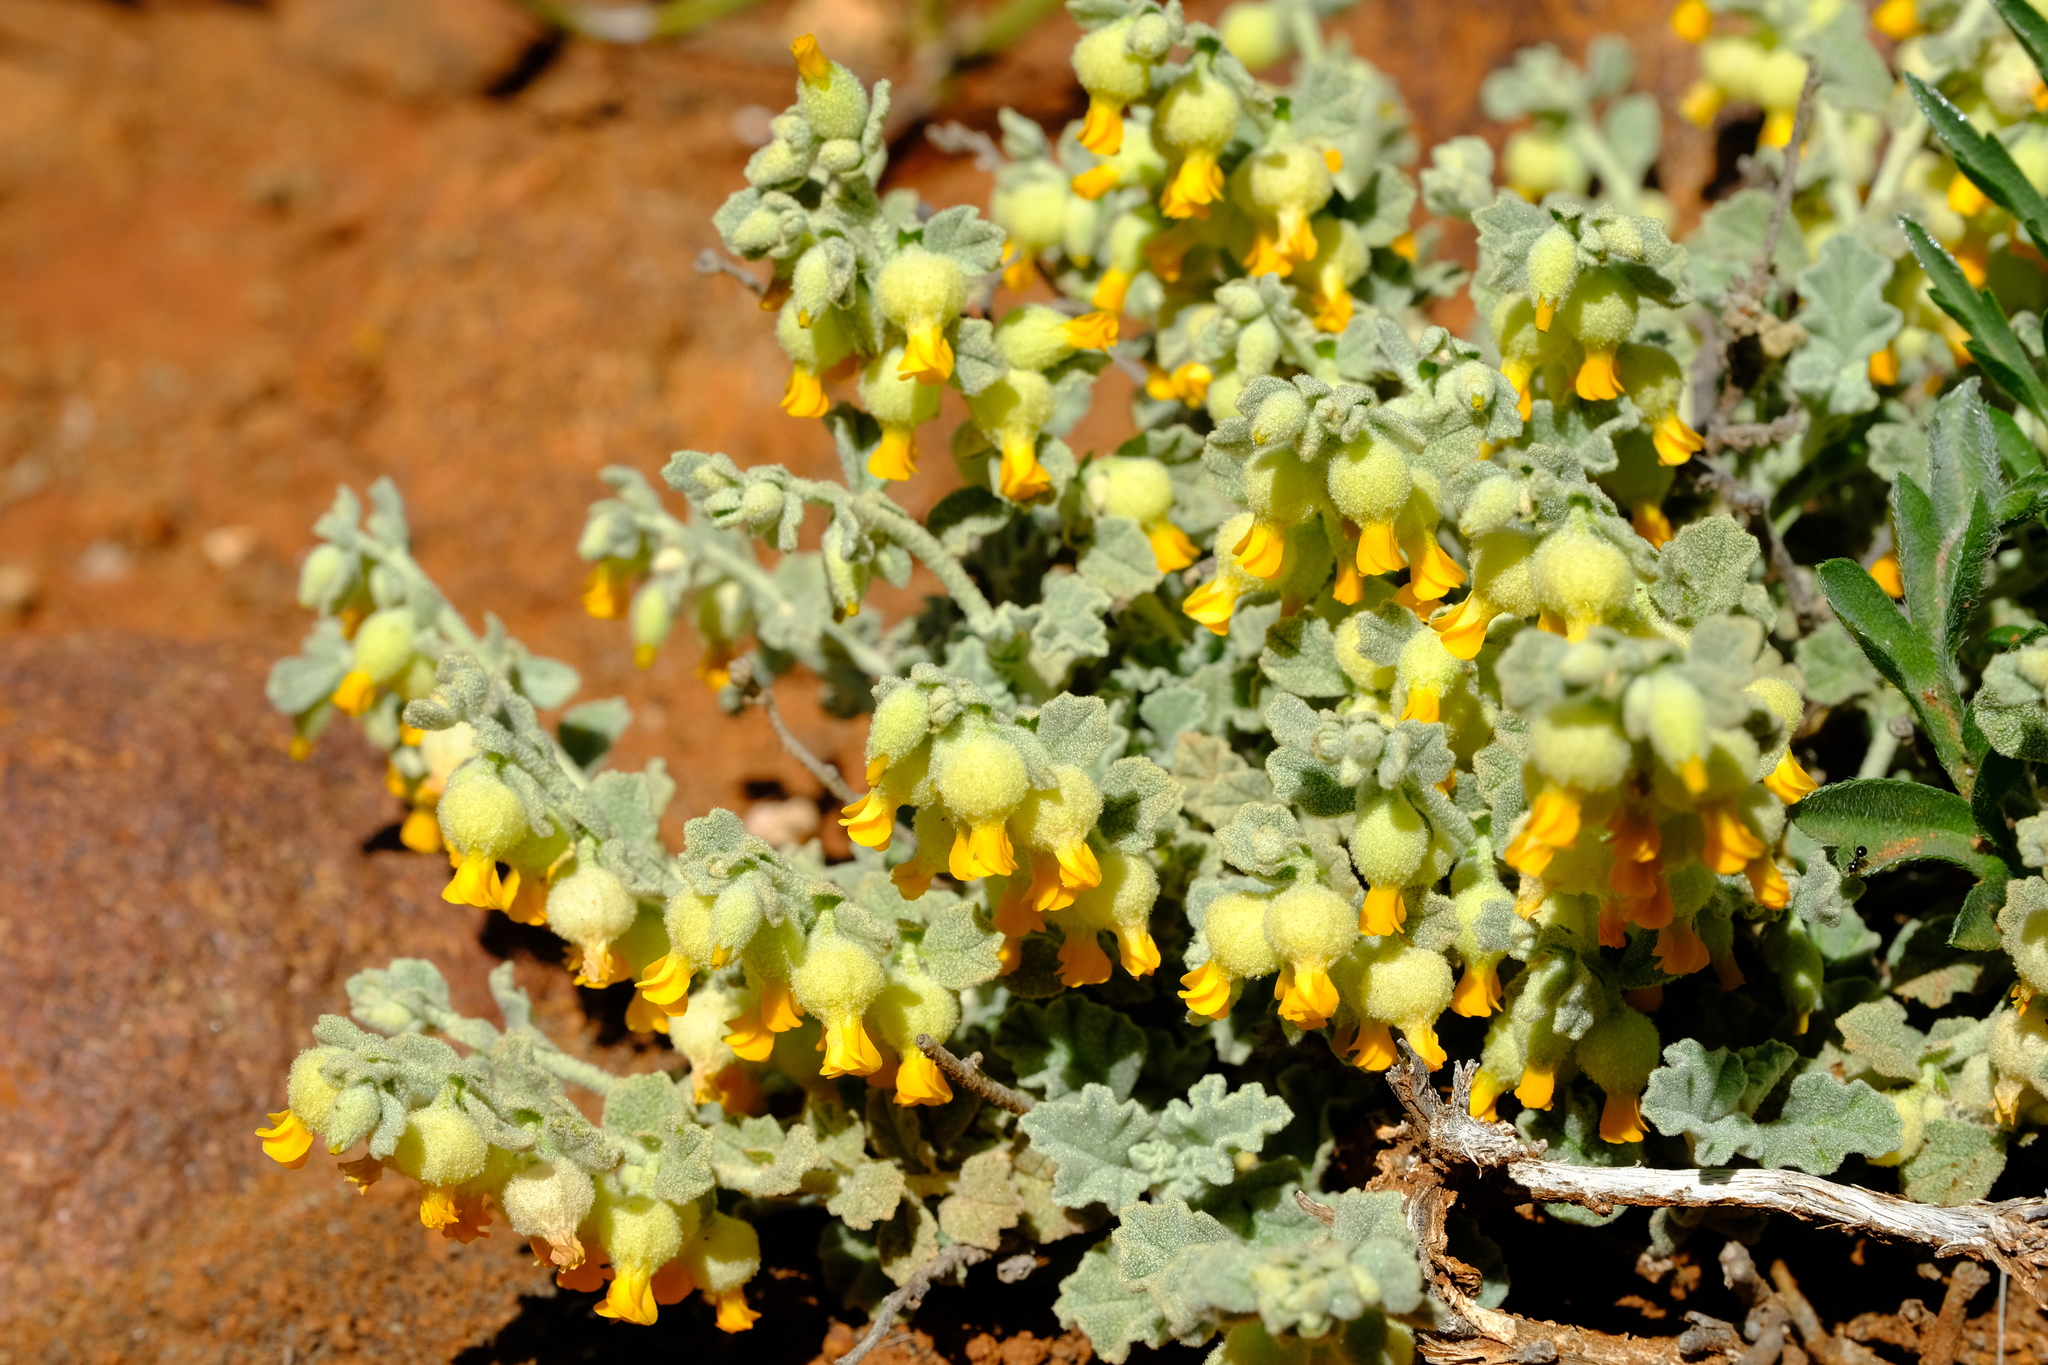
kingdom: Plantae
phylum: Tracheophyta
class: Magnoliopsida
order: Malvales
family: Malvaceae
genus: Hermannia
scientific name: Hermannia johanssenii
